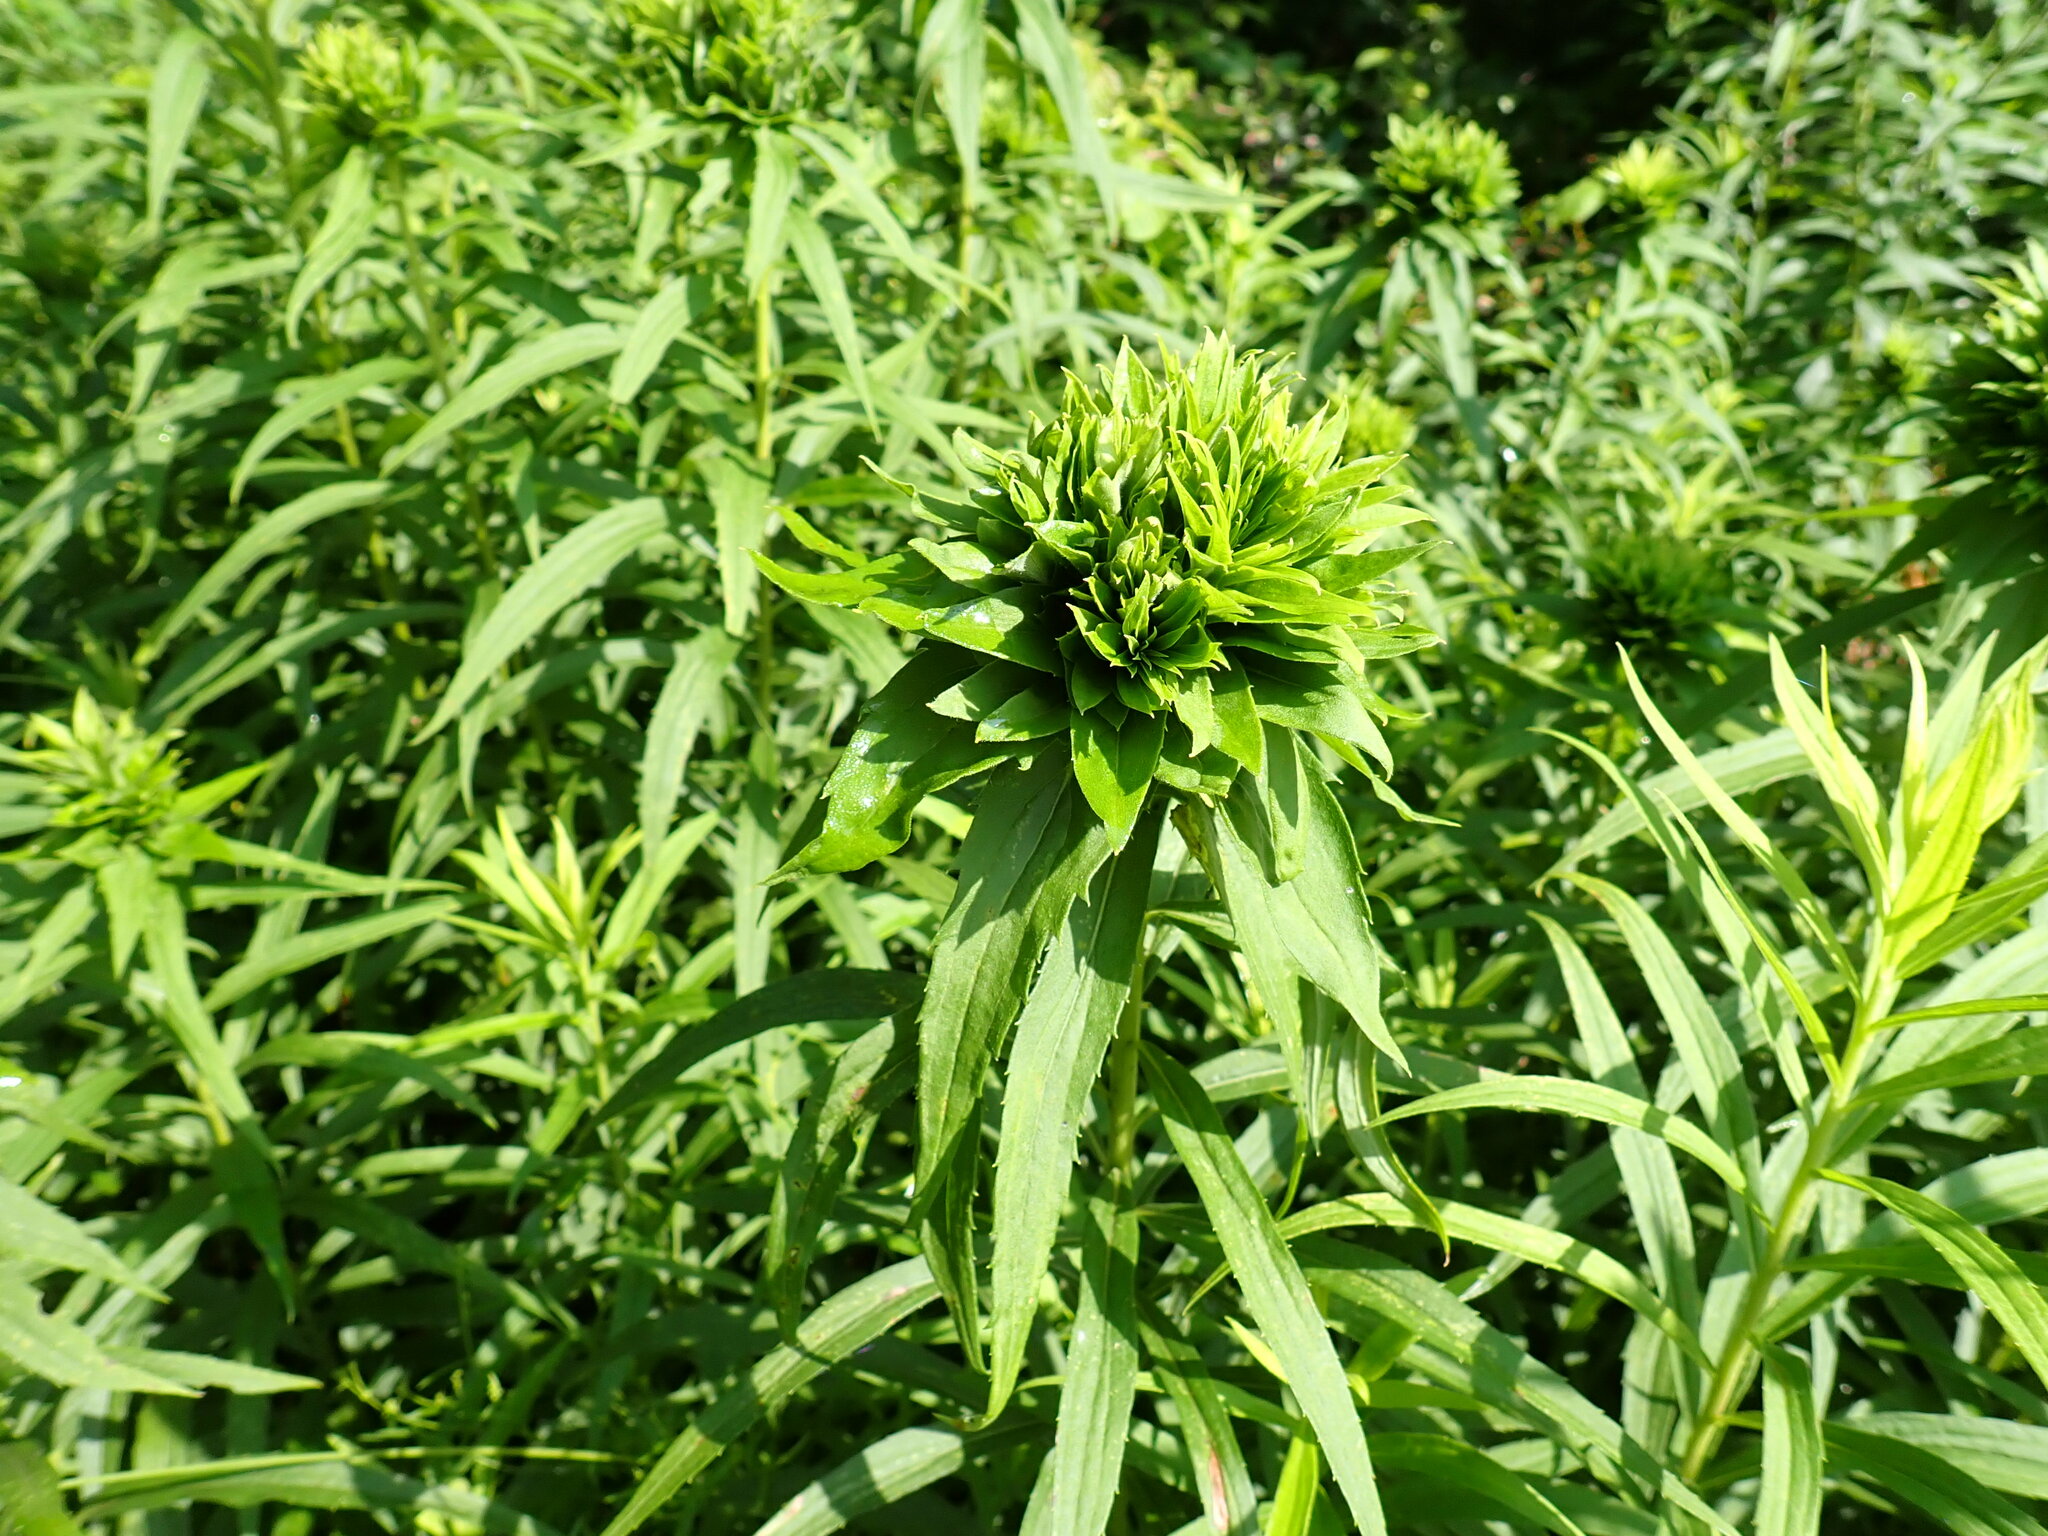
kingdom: Animalia
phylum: Arthropoda
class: Insecta
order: Diptera
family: Cecidomyiidae
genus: Rhopalomyia
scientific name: Rhopalomyia solidaginis
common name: Goldenrod bunch gall midge
